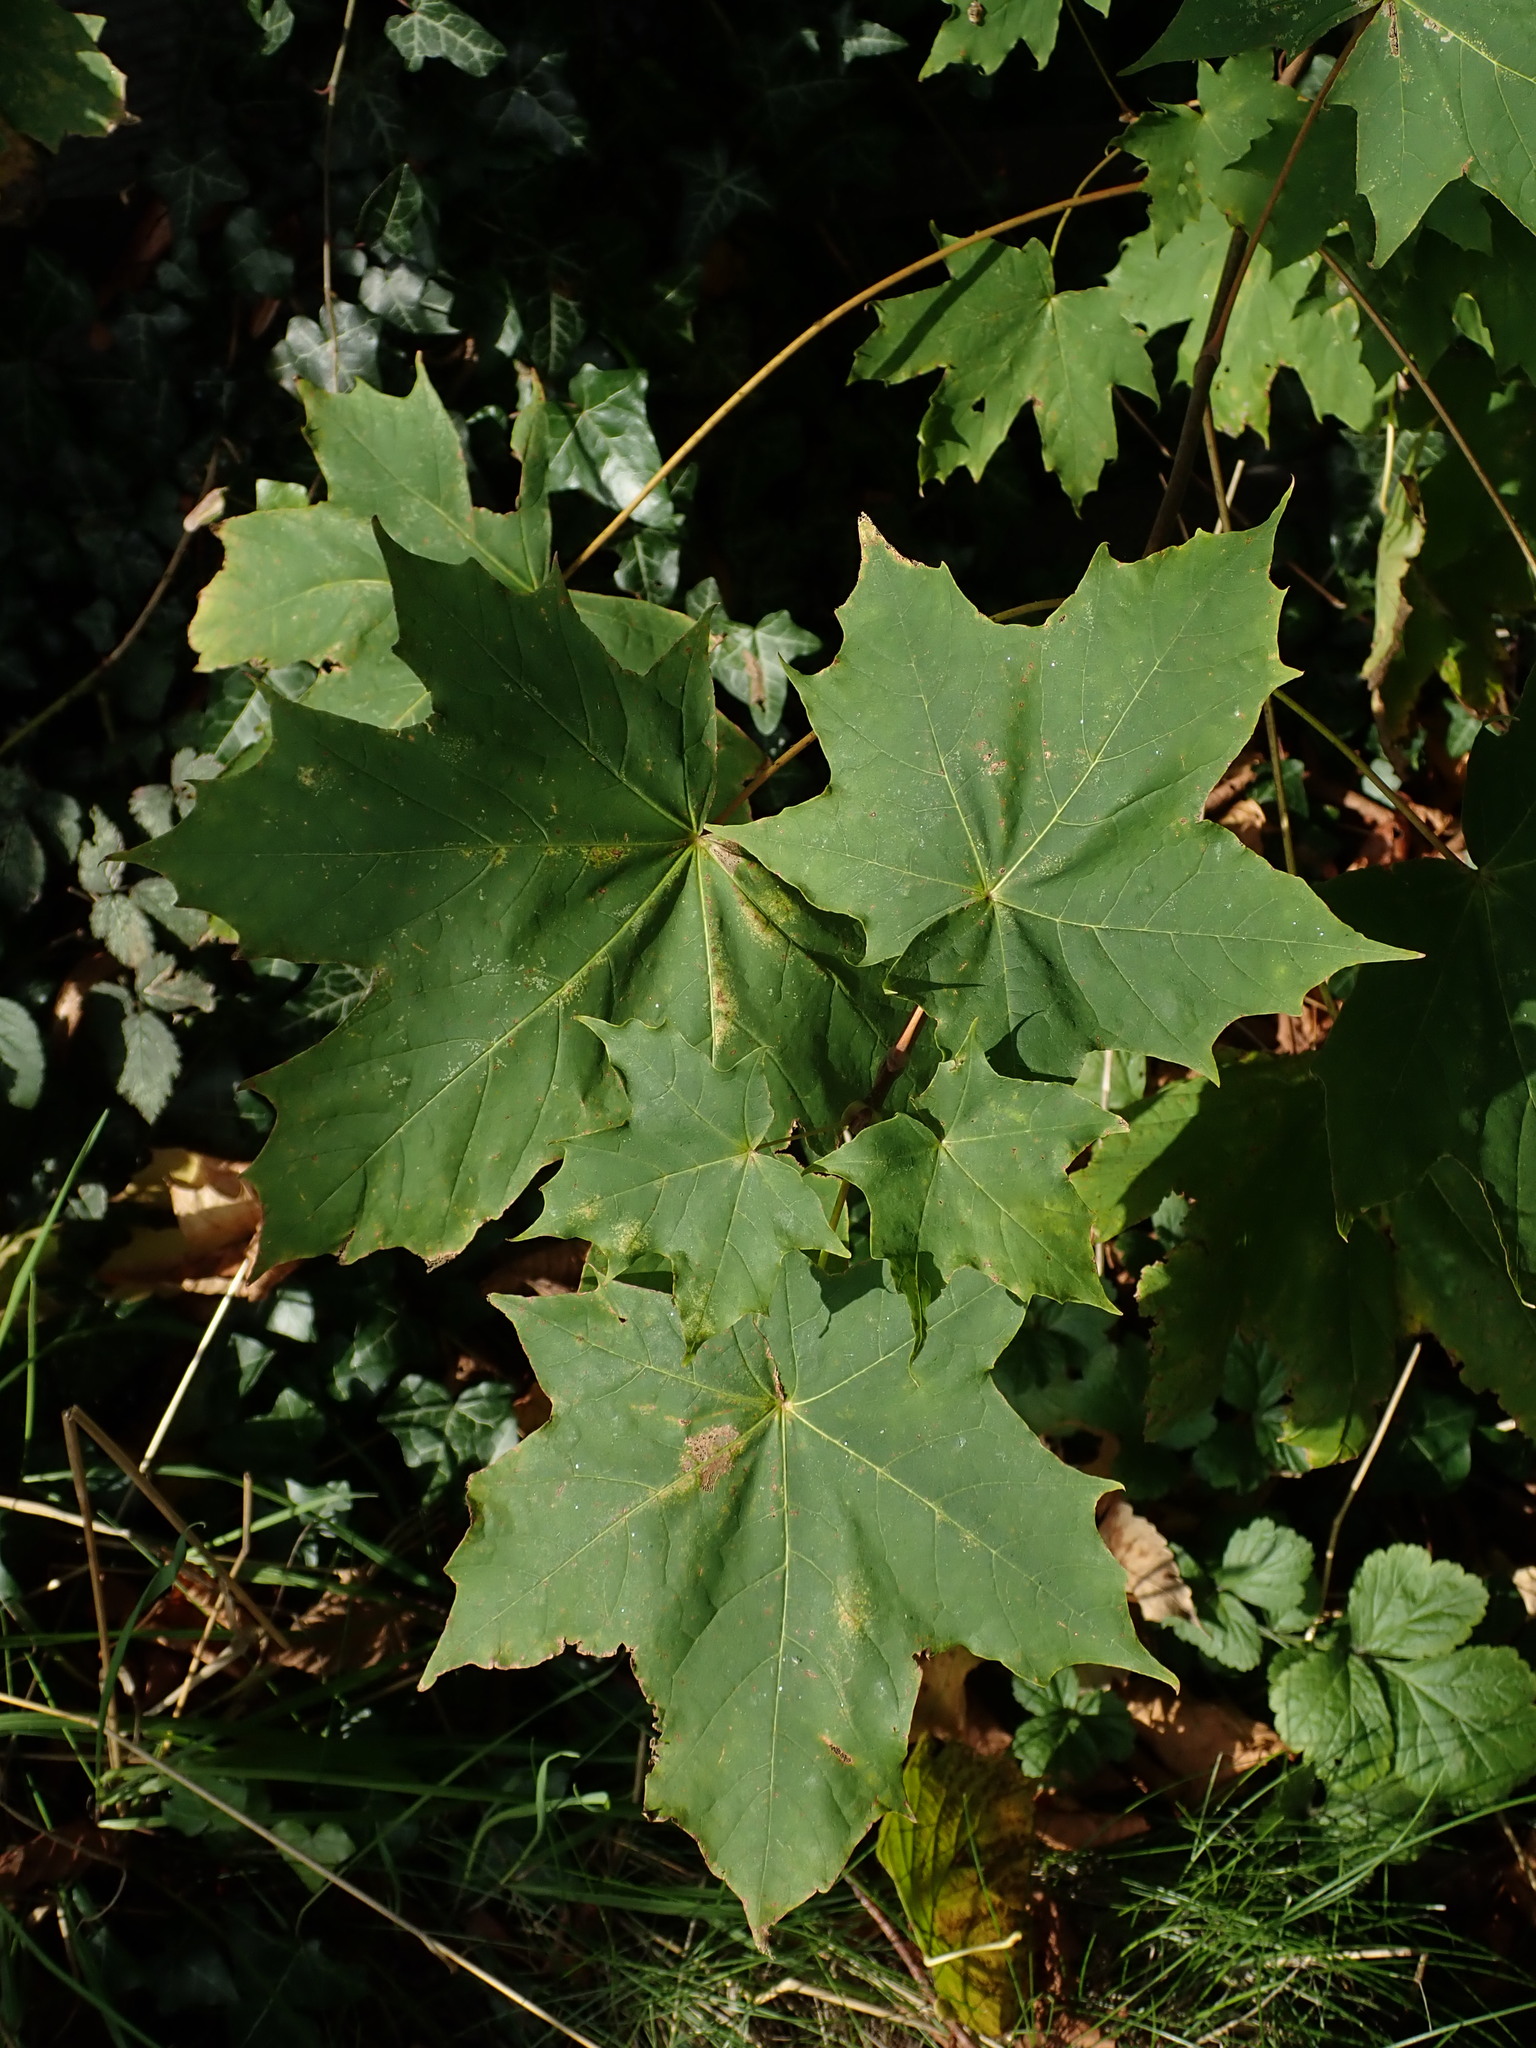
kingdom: Plantae
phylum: Tracheophyta
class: Magnoliopsida
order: Sapindales
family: Sapindaceae
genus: Acer
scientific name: Acer platanoides
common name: Norway maple
